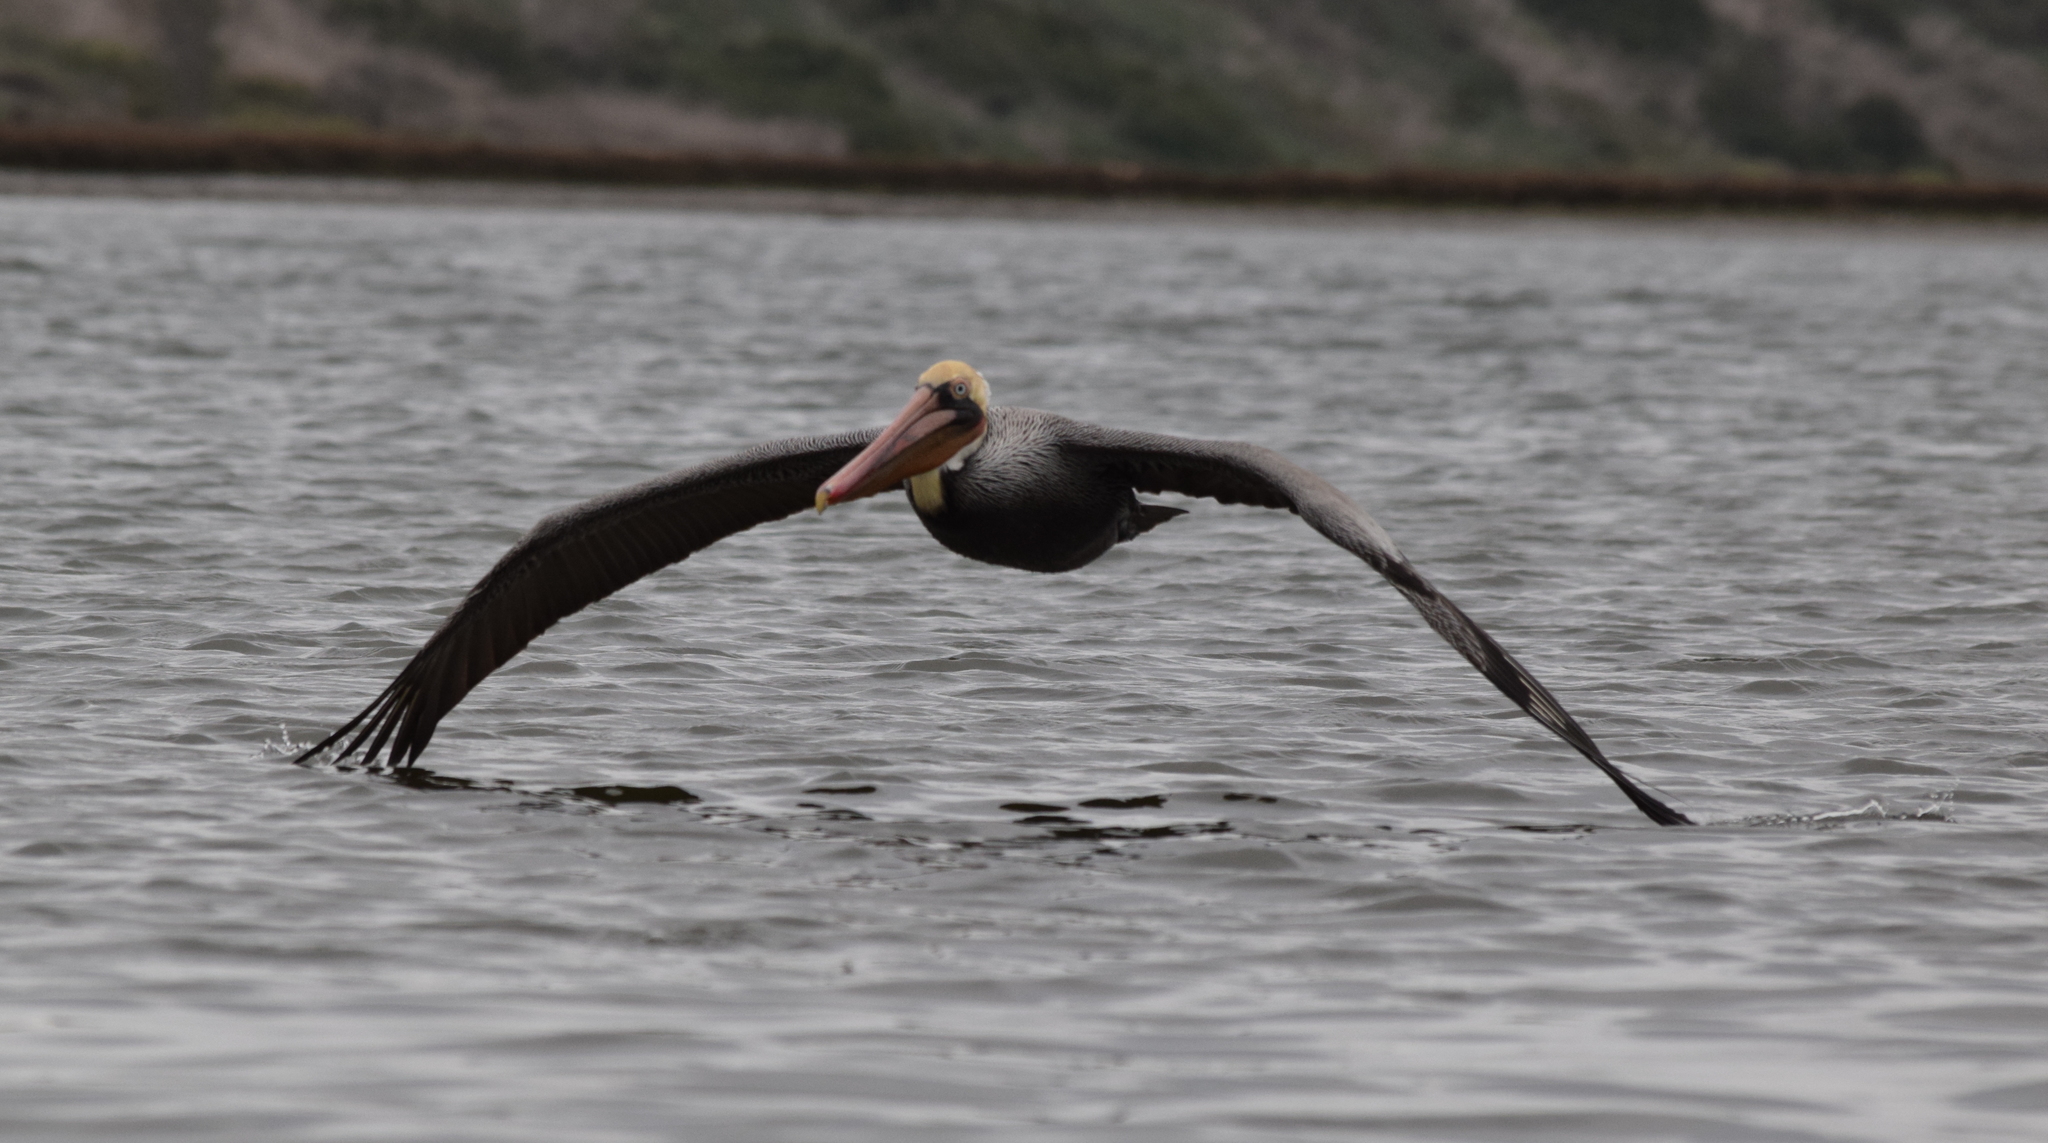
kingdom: Animalia
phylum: Chordata
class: Aves
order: Pelecaniformes
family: Pelecanidae
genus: Pelecanus
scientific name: Pelecanus occidentalis
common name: Brown pelican
